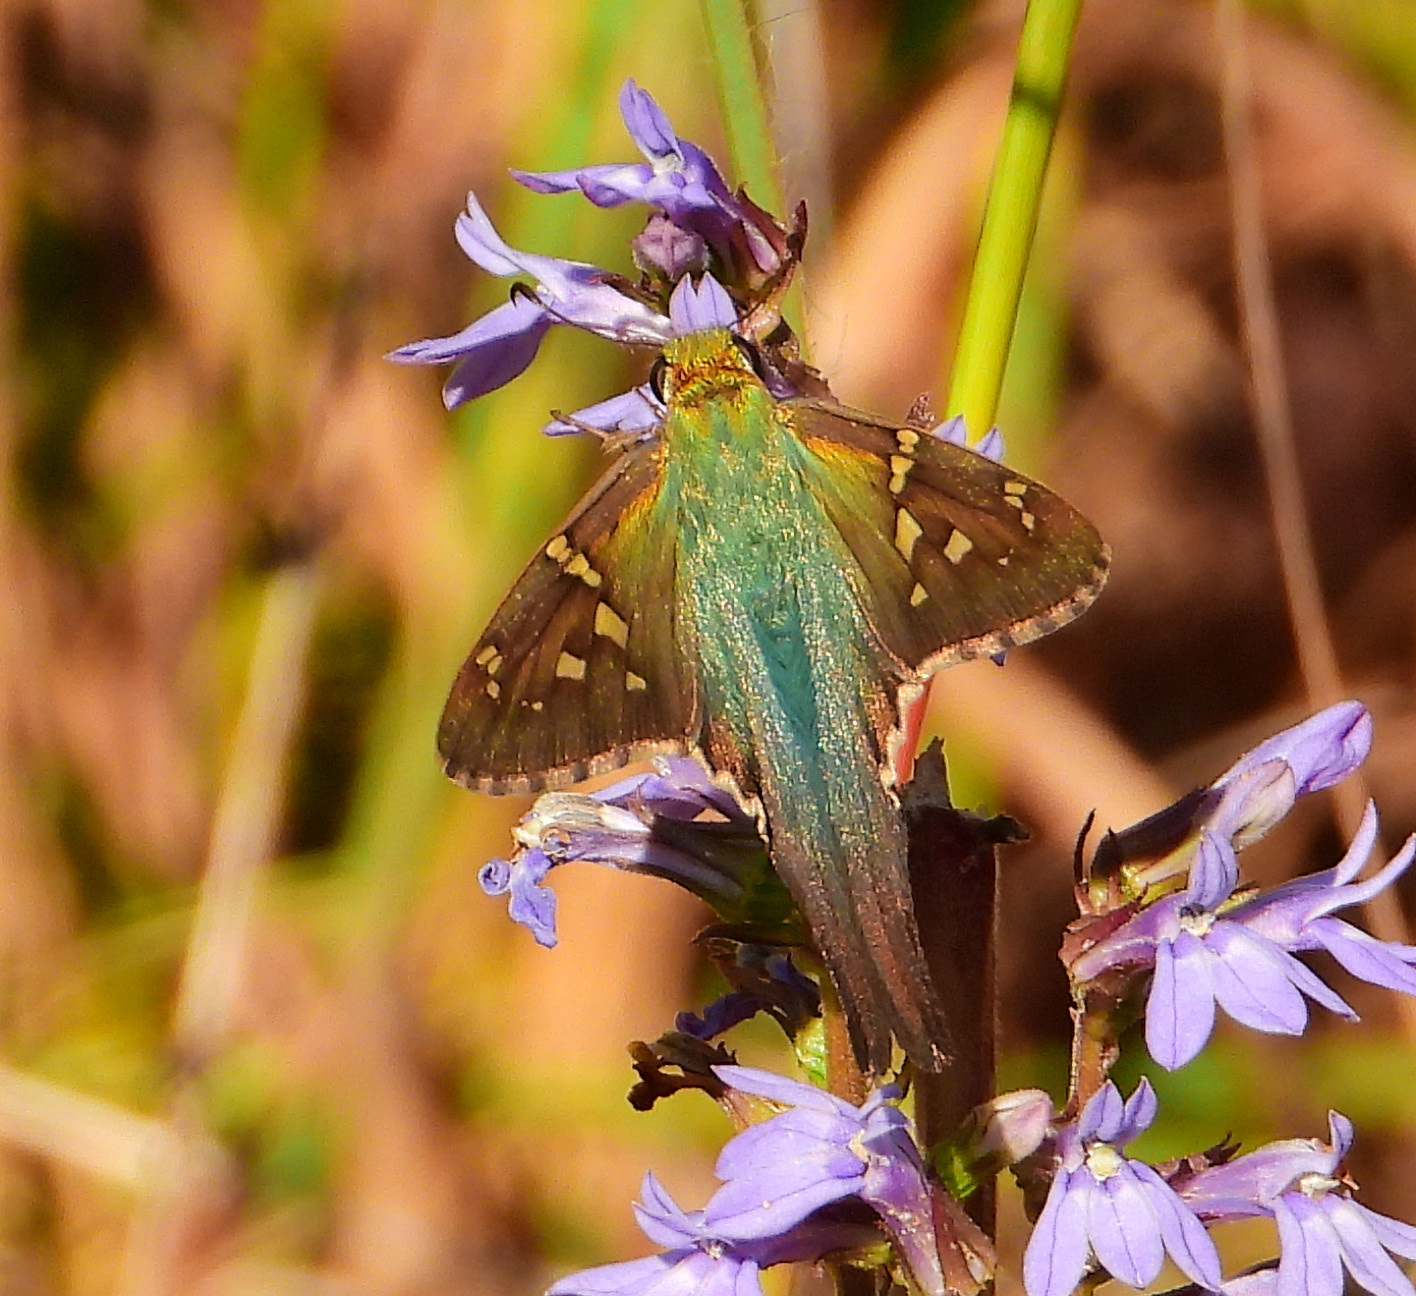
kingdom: Animalia
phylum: Arthropoda
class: Insecta
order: Lepidoptera
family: Hesperiidae
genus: Urbanus
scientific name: Urbanus proteus
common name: Long-tailed skipper
